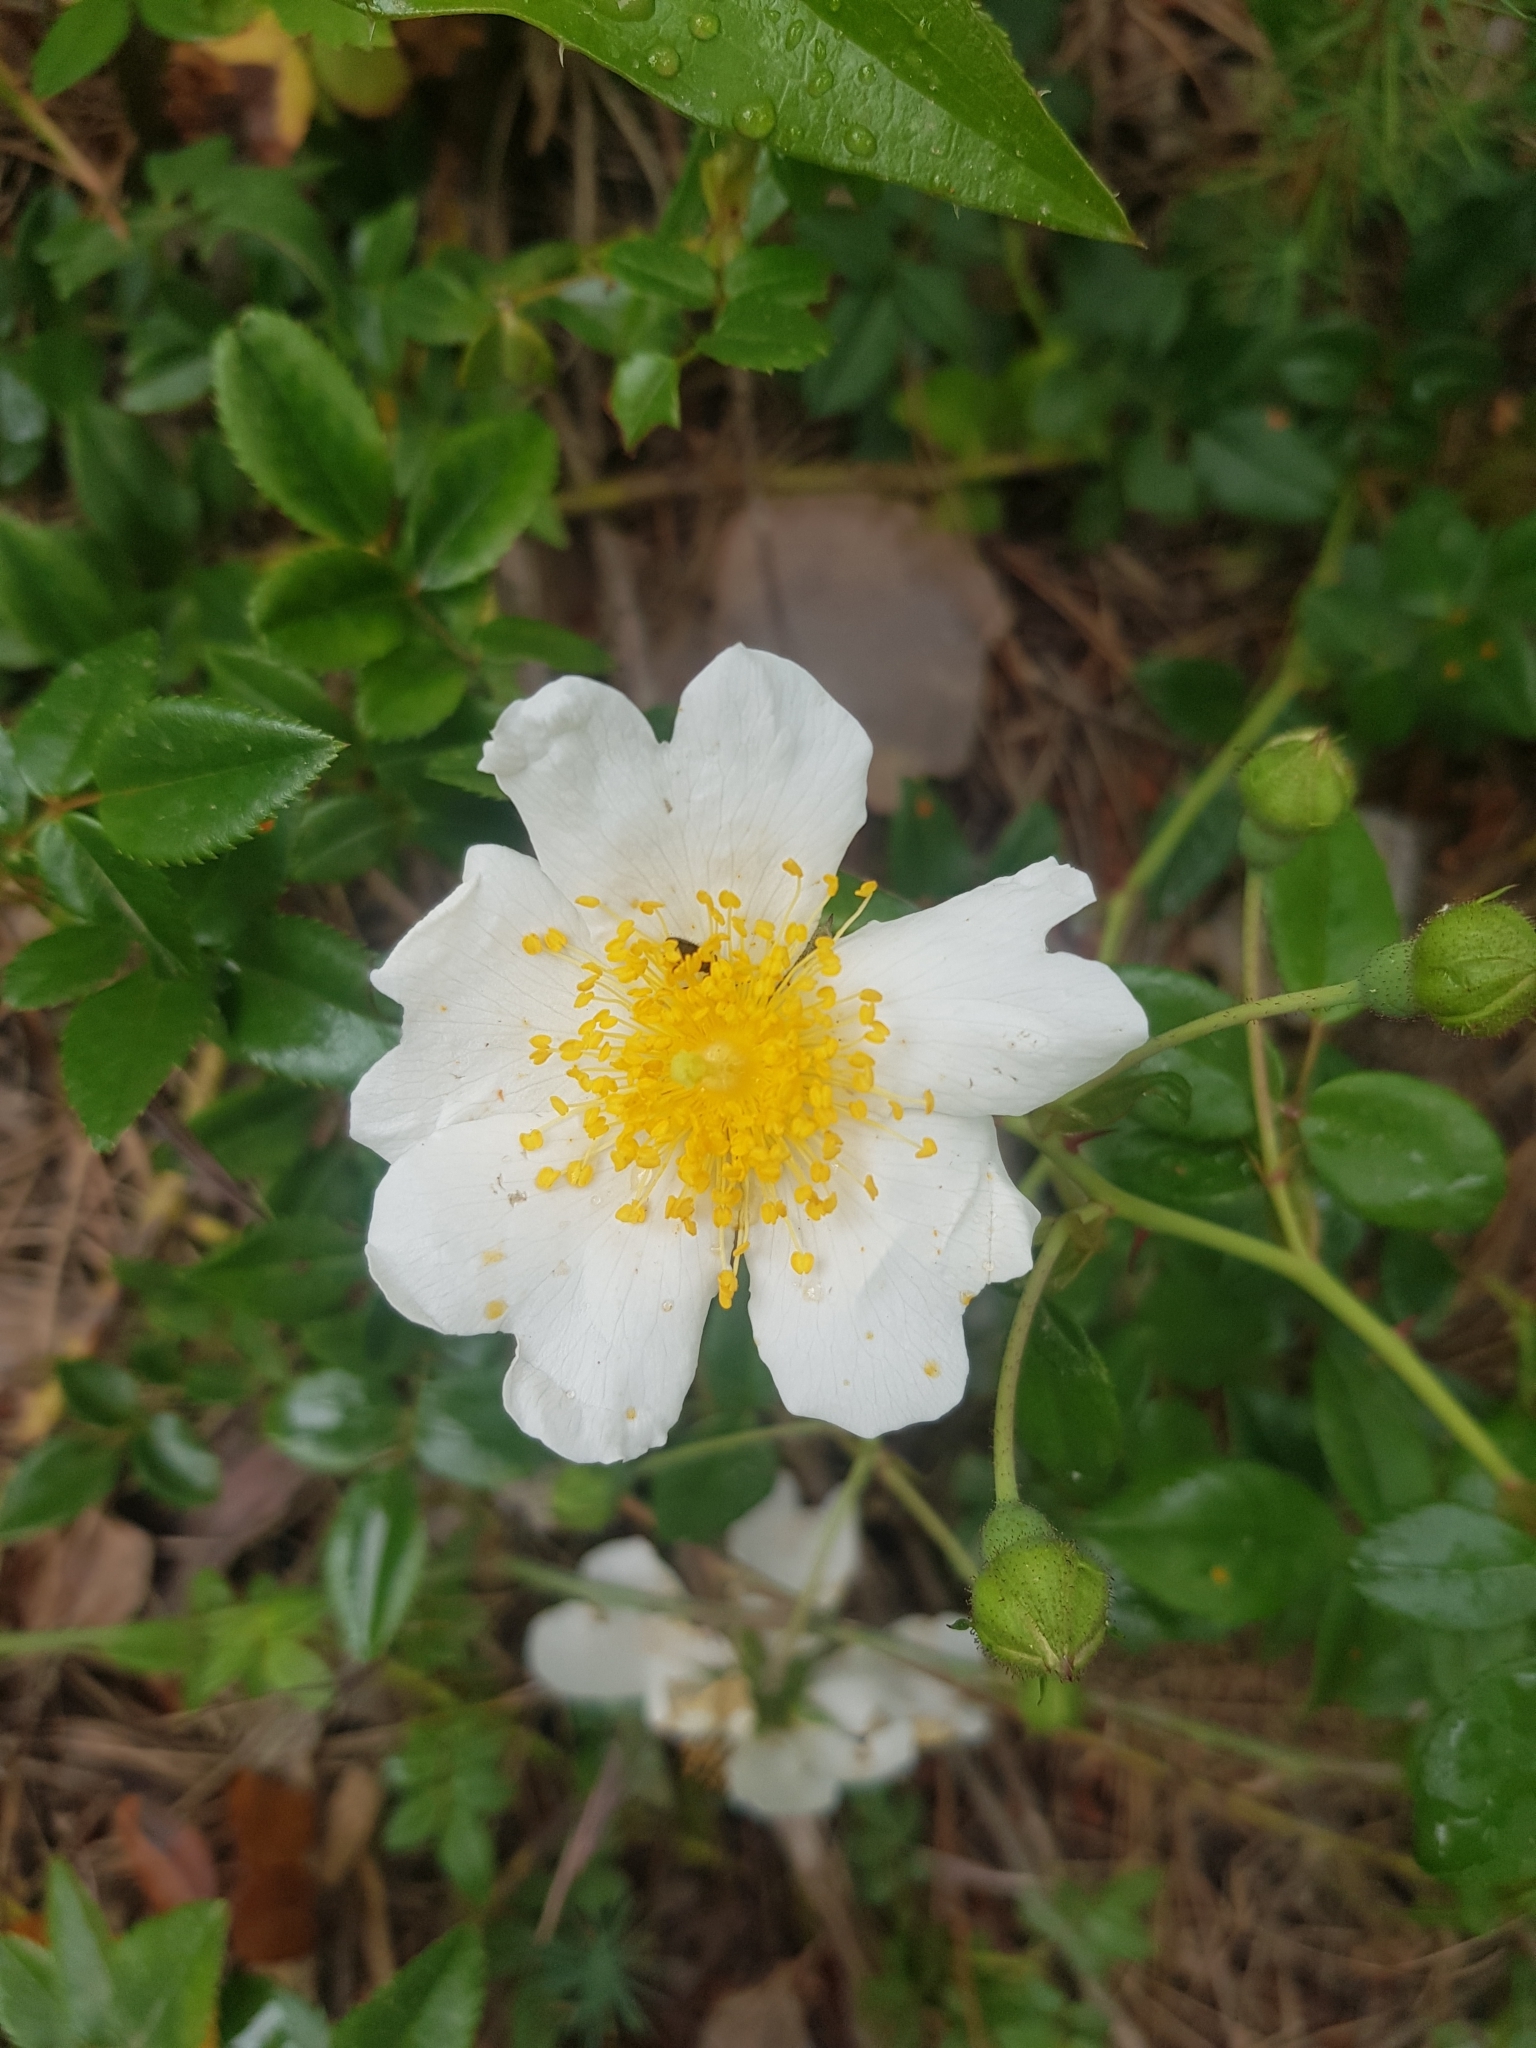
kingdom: Plantae
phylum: Tracheophyta
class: Magnoliopsida
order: Rosales
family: Rosaceae
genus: Rosa
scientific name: Rosa sempervirens
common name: Evergreen rose
